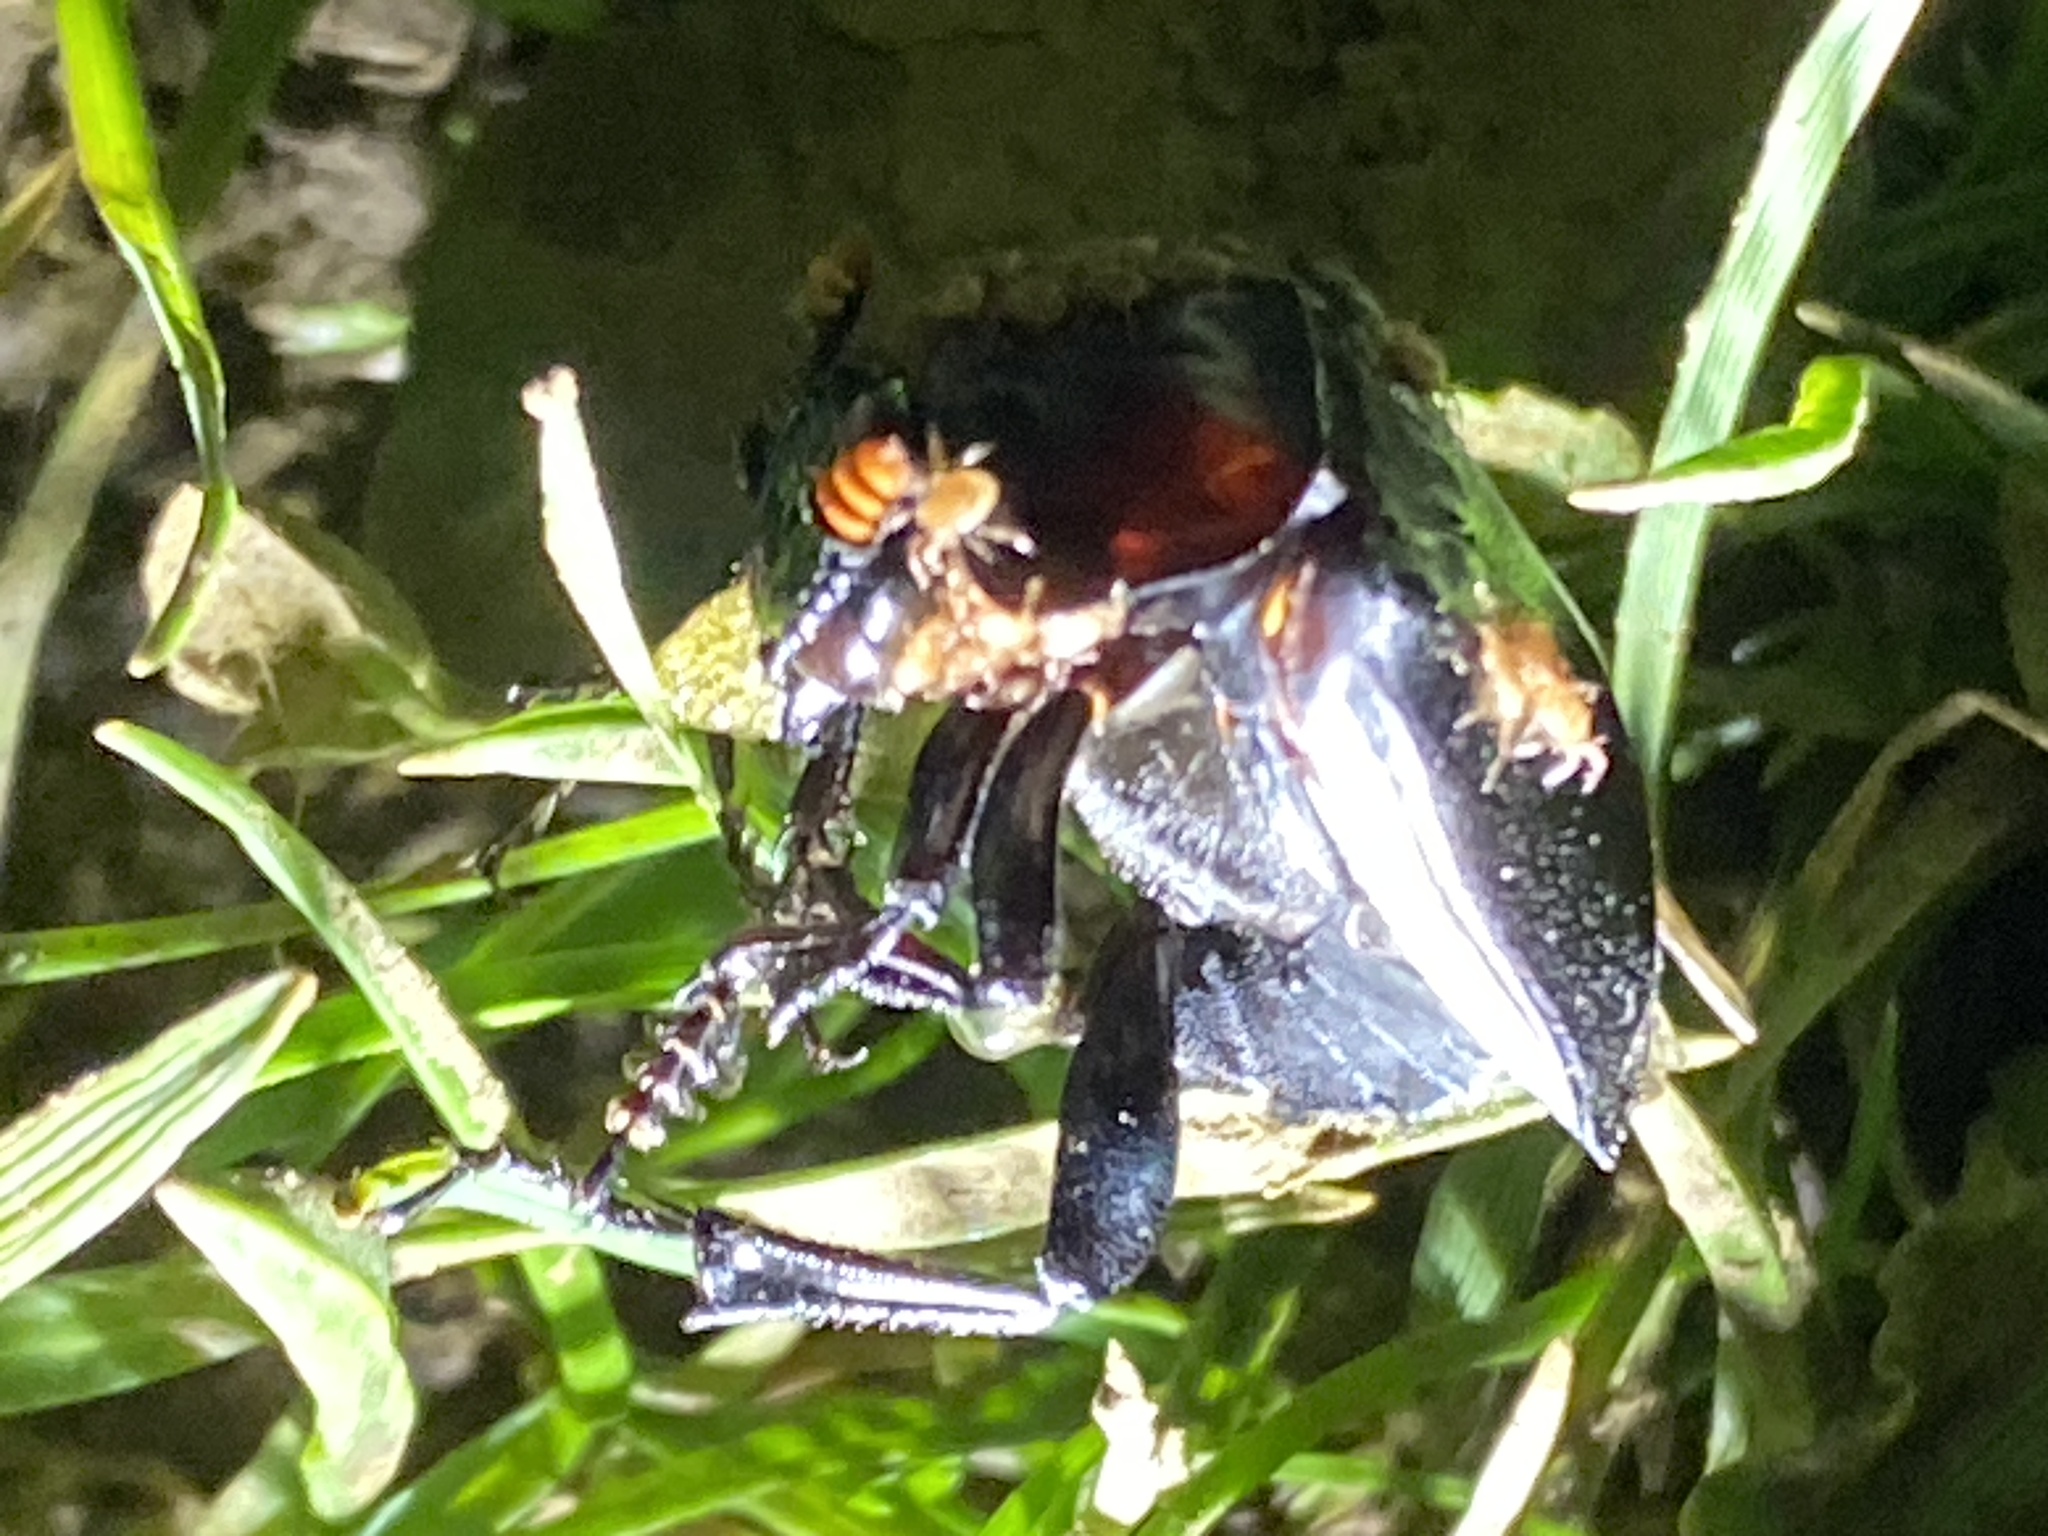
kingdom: Animalia
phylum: Arthropoda
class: Insecta
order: Coleoptera
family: Staphylinidae
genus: Nicrophorus
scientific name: Nicrophorus nigrita
